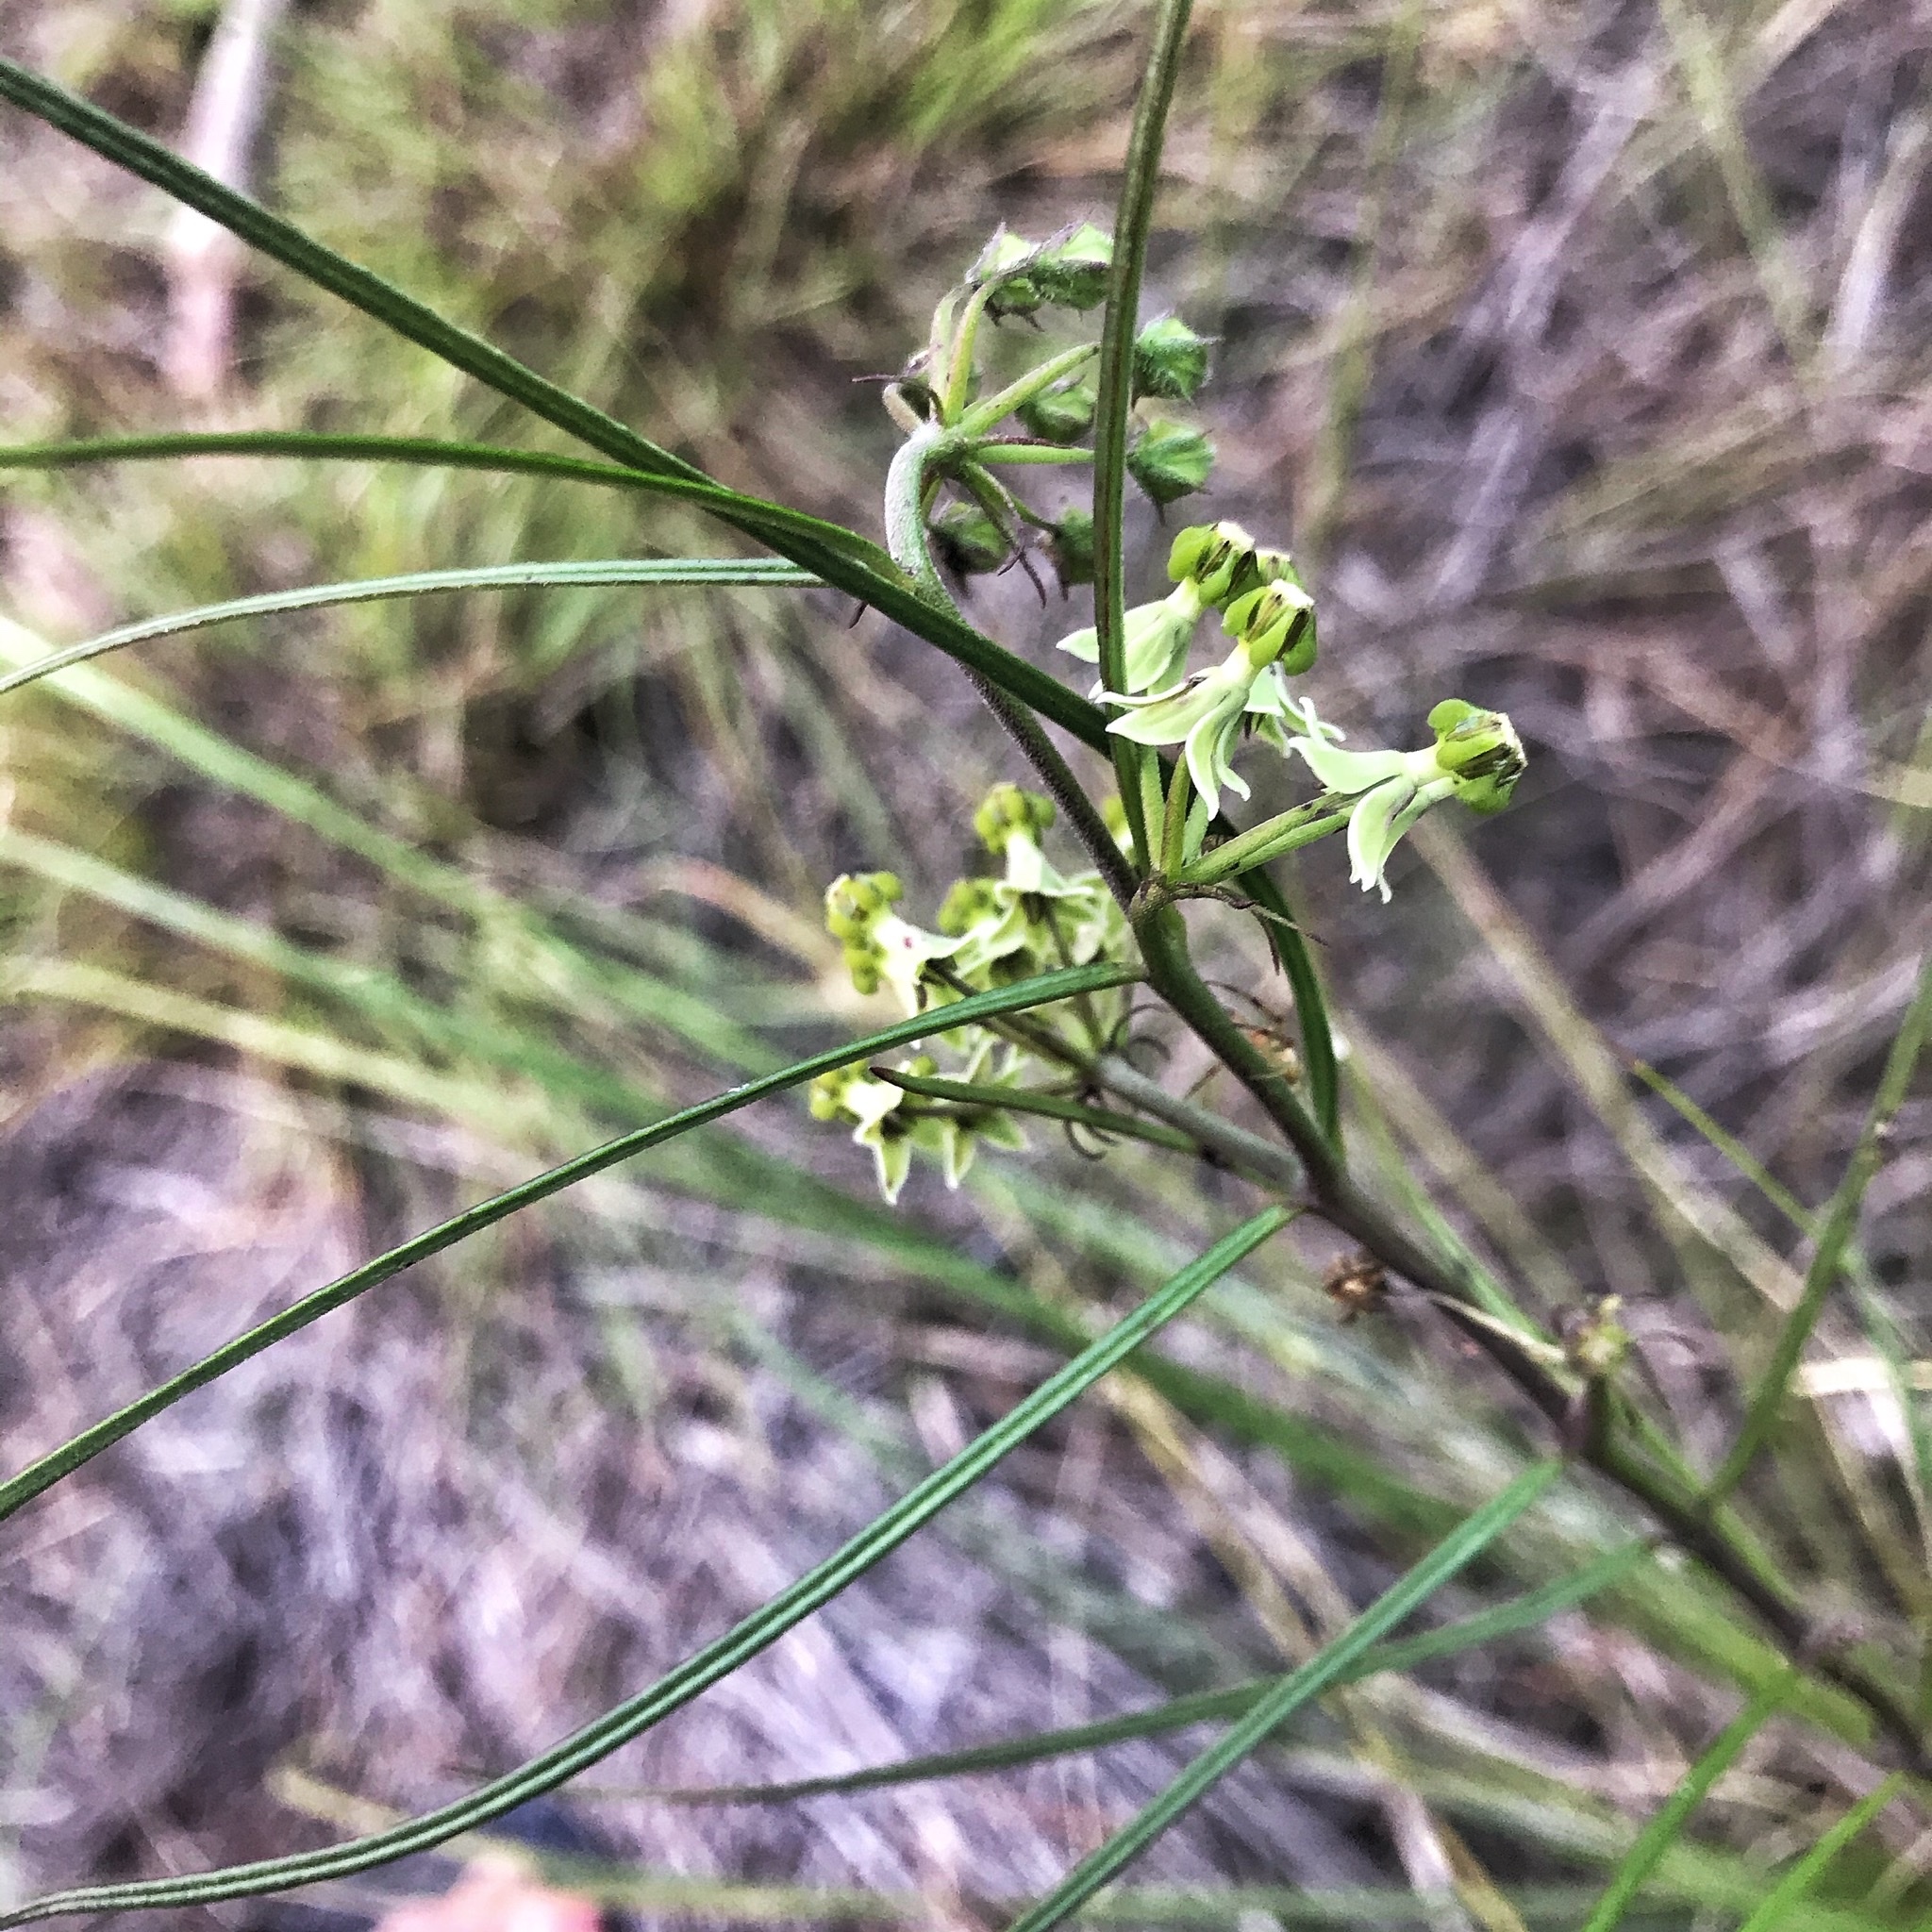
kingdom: Plantae
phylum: Tracheophyta
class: Magnoliopsida
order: Gentianales
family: Apocynaceae
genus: Xysmalobium
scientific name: Xysmalobium zeyheri
